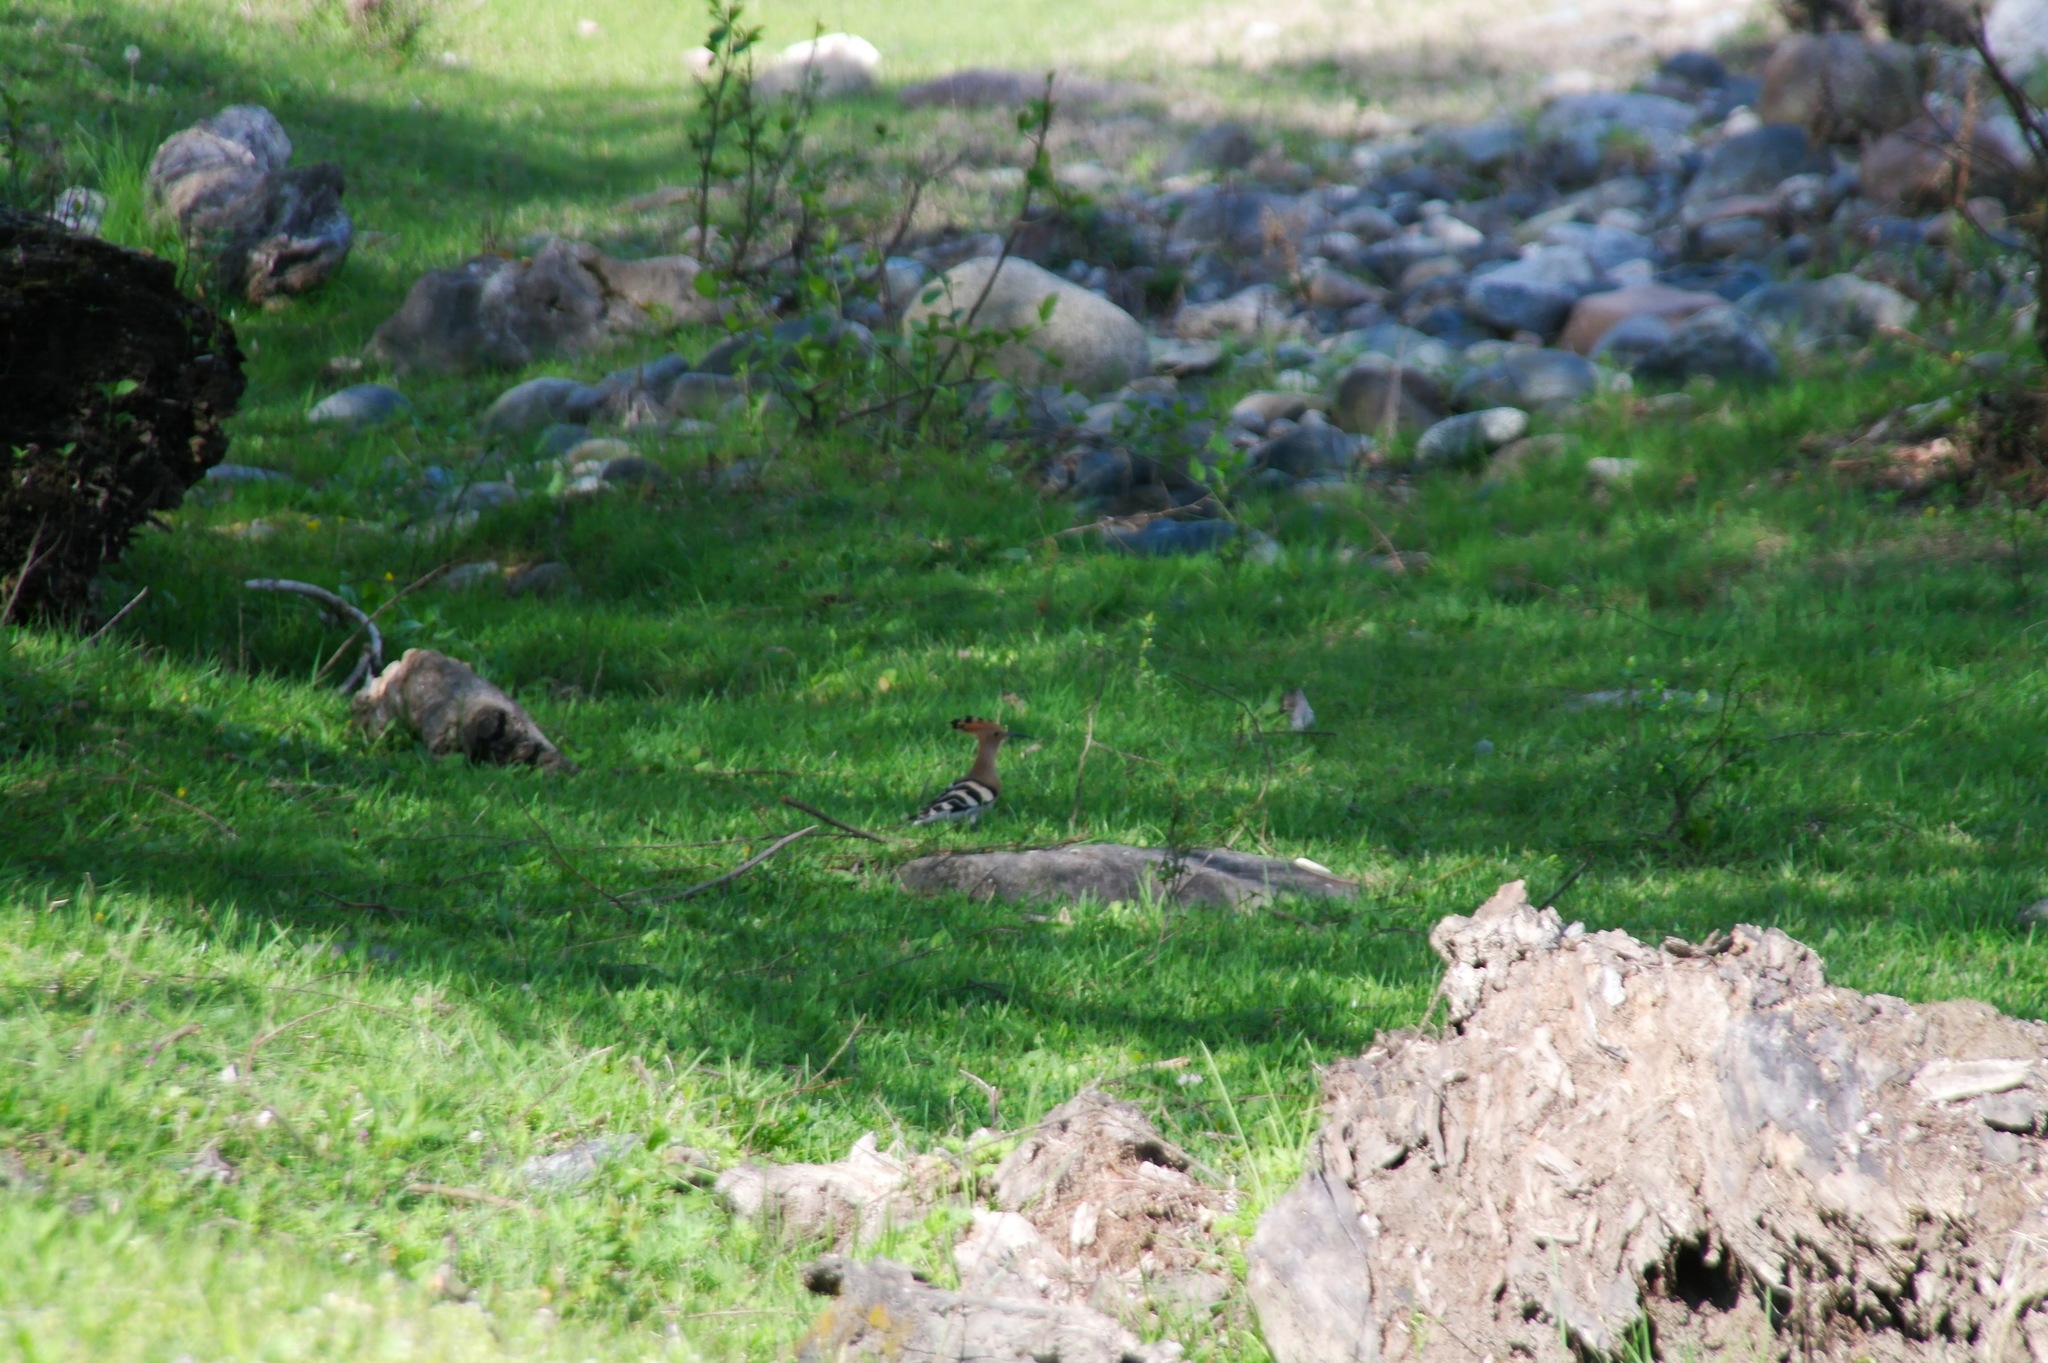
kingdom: Animalia
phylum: Chordata
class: Aves
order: Bucerotiformes
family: Upupidae
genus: Upupa
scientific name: Upupa epops
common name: Eurasian hoopoe
